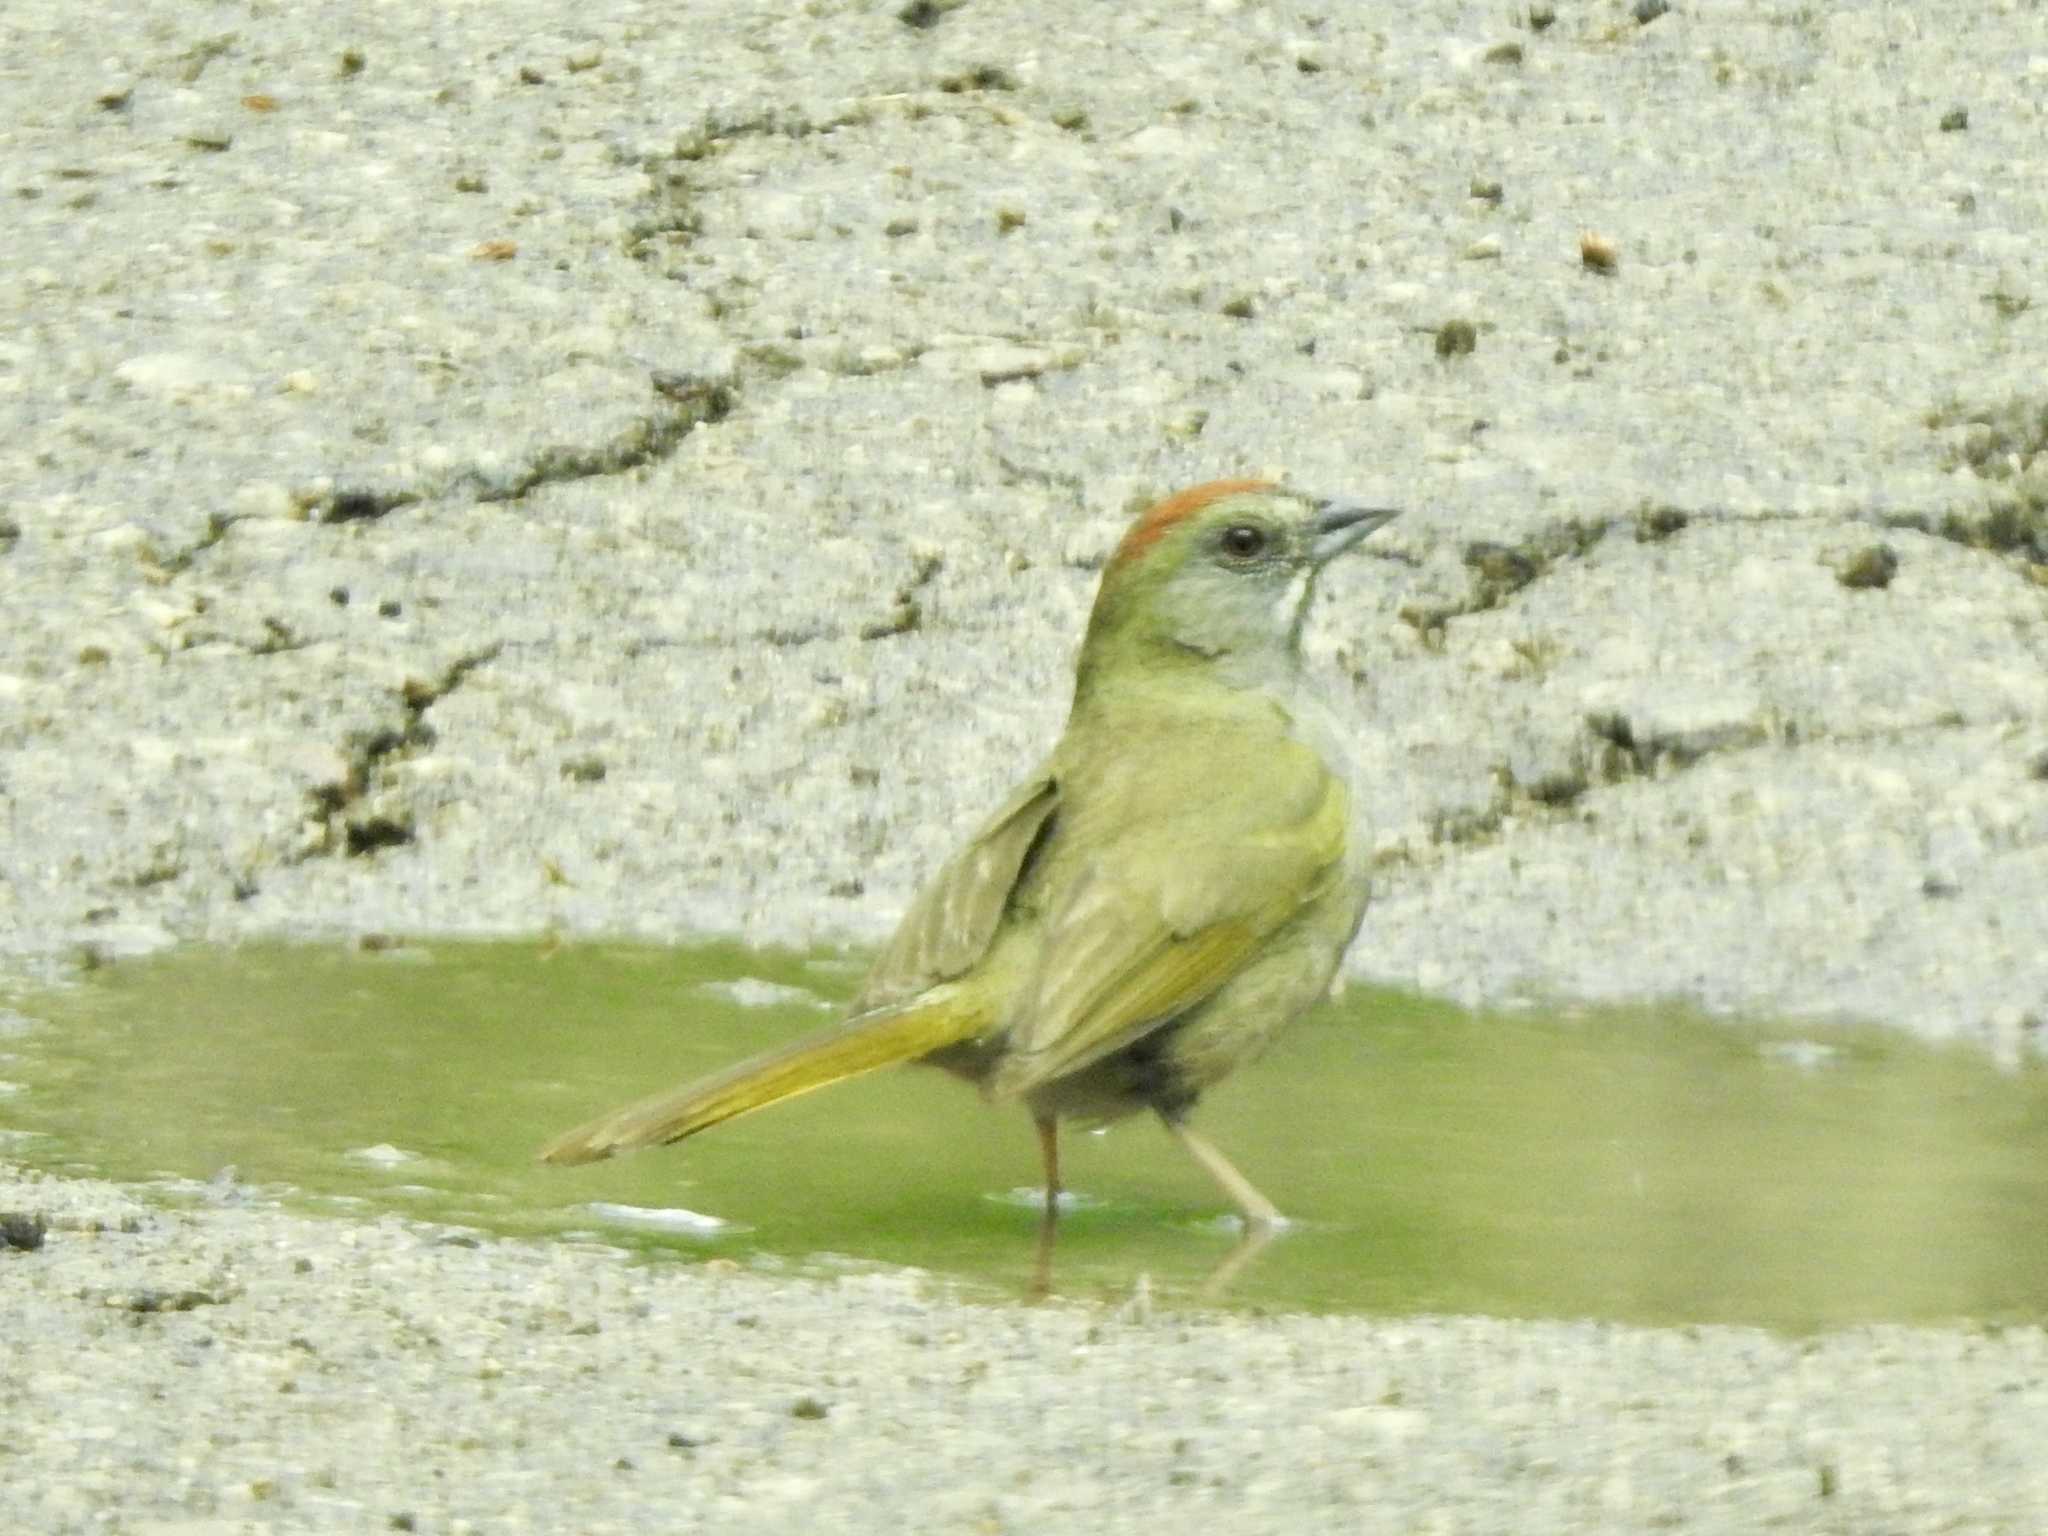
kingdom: Animalia
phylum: Chordata
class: Aves
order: Passeriformes
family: Passerellidae
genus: Pipilo
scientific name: Pipilo chlorurus
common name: Green-tailed towhee
